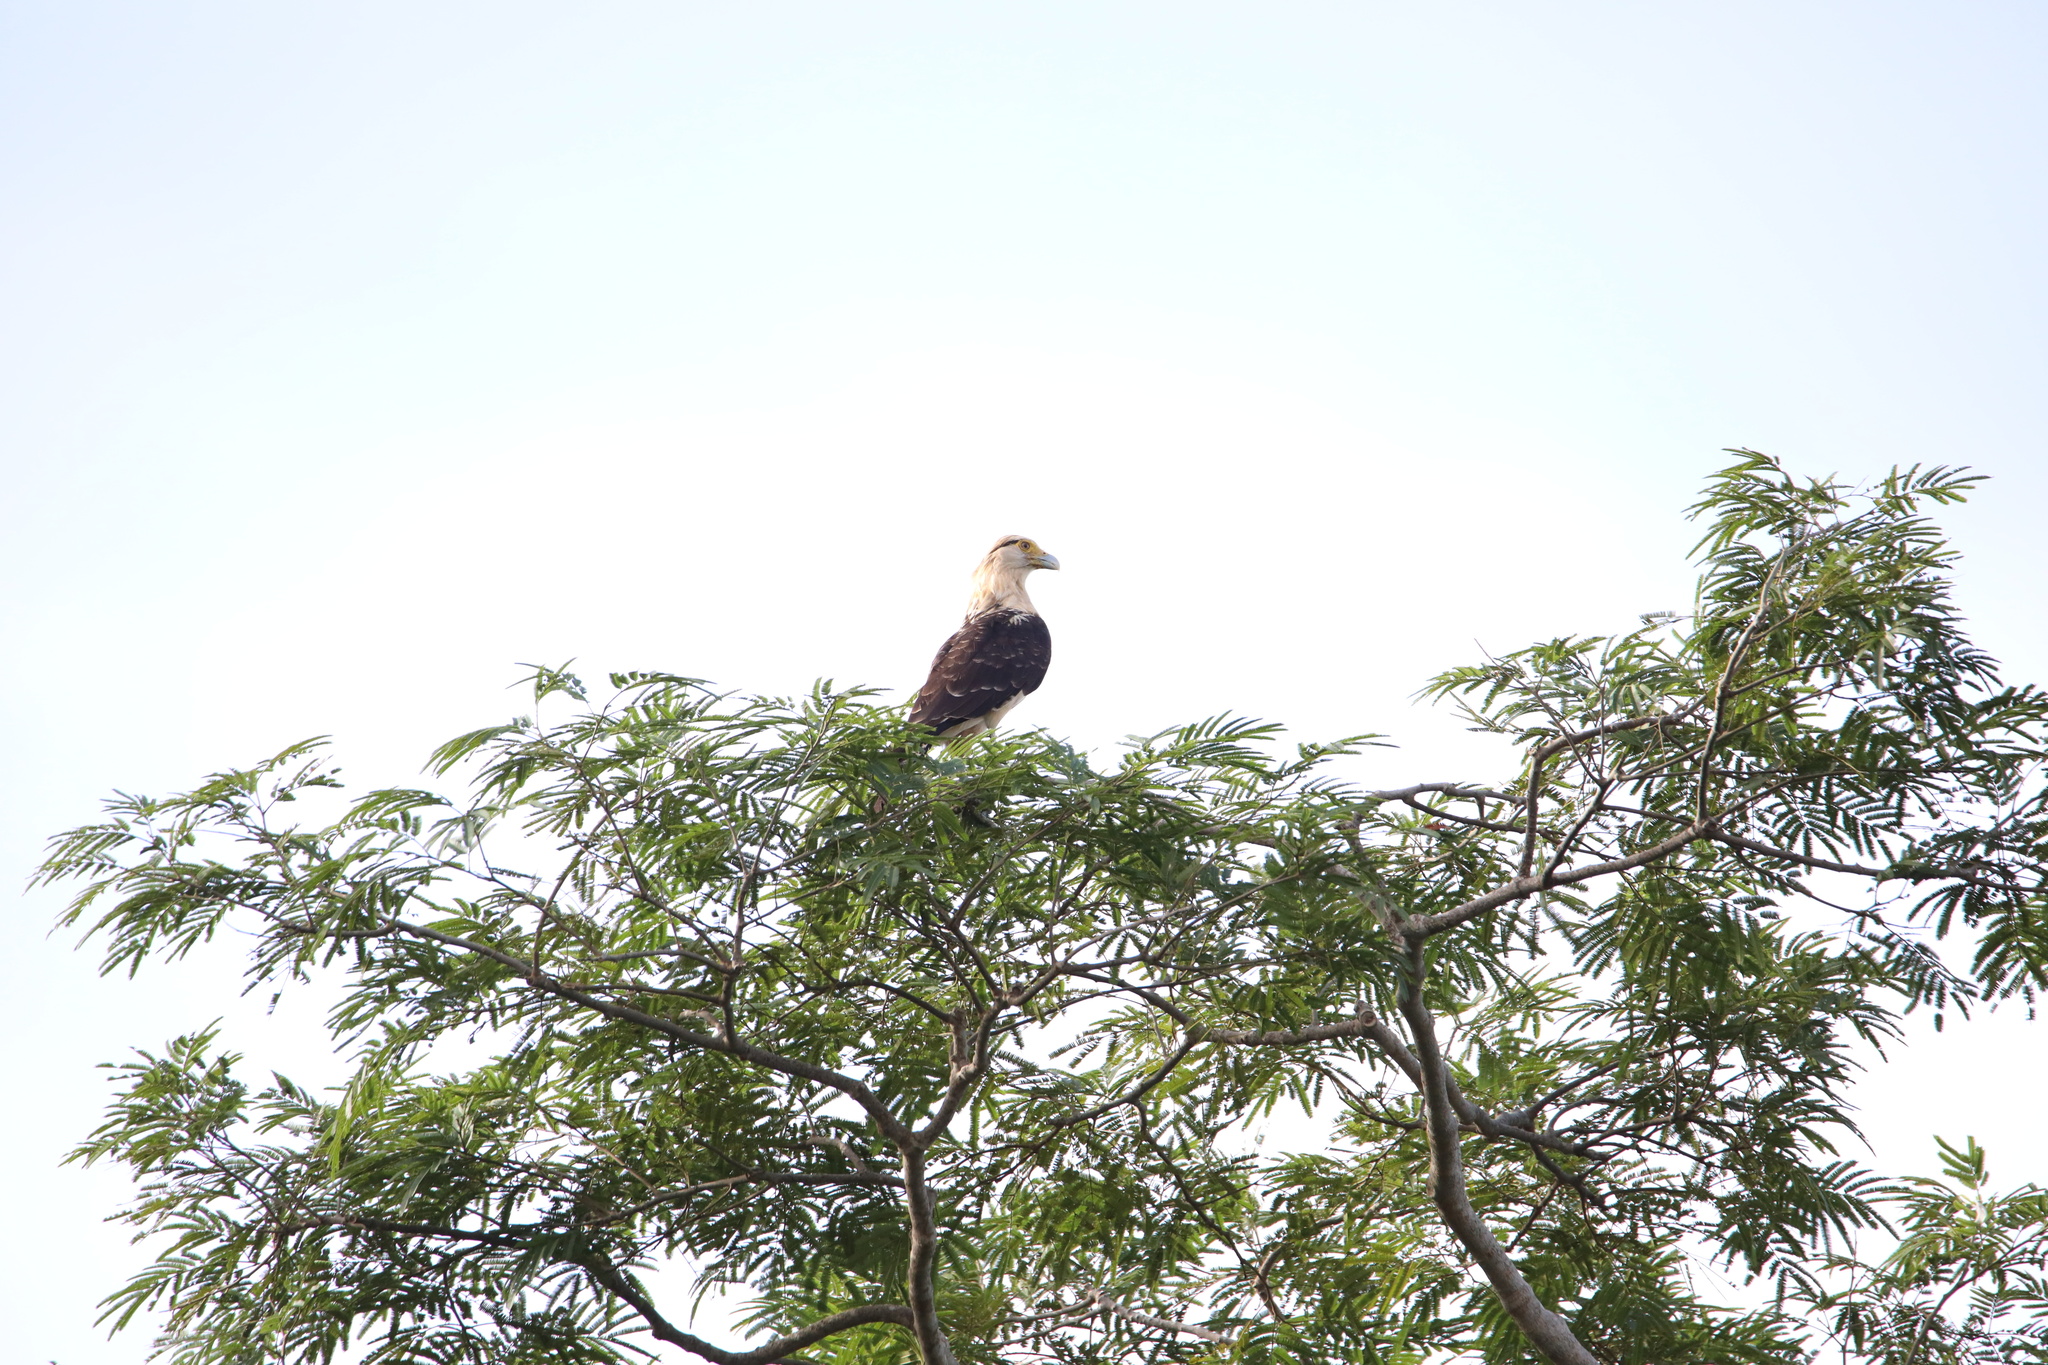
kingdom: Animalia
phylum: Chordata
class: Aves
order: Falconiformes
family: Falconidae
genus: Daptrius
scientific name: Daptrius
